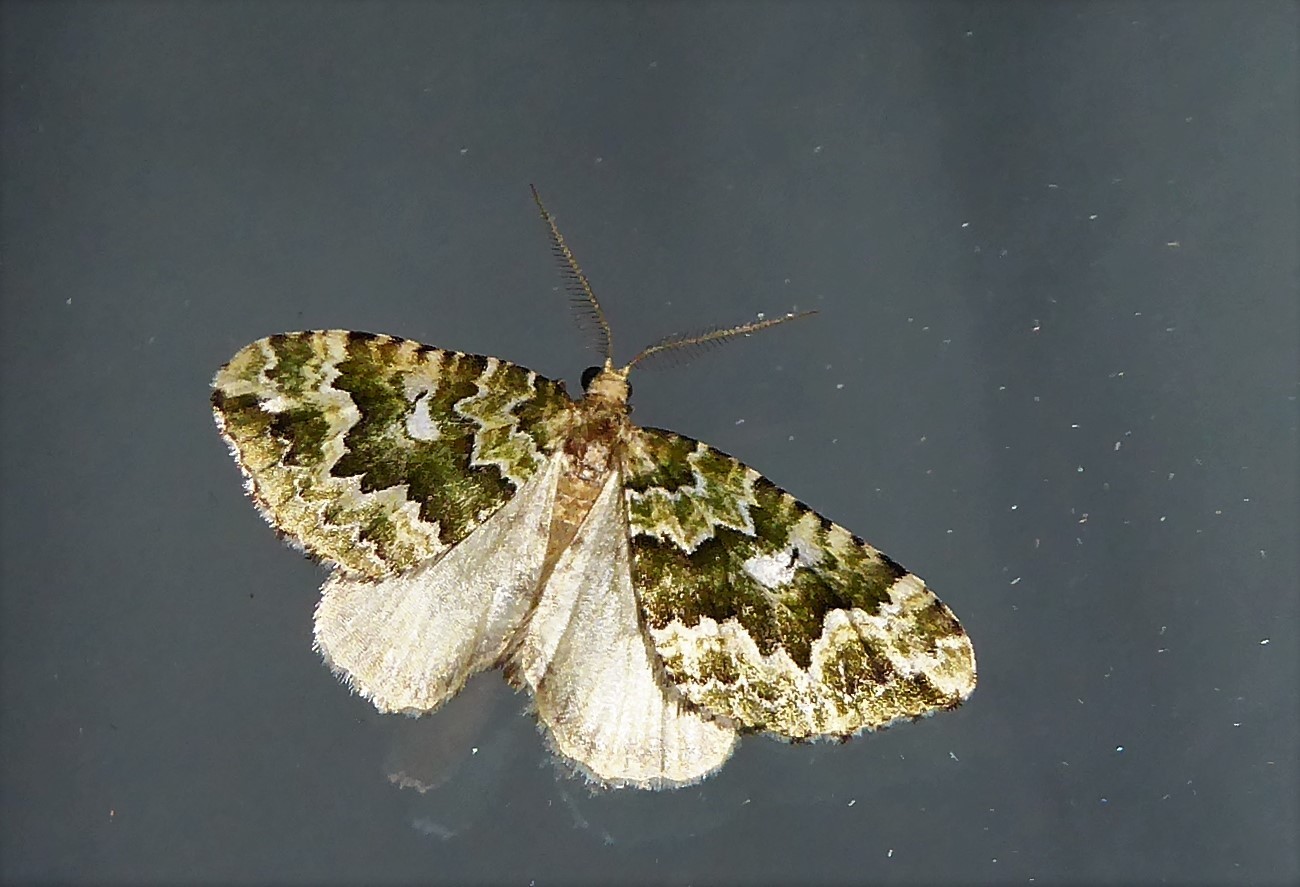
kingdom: Animalia
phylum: Arthropoda
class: Insecta
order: Lepidoptera
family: Geometridae
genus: Asaphodes
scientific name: Asaphodes beata
